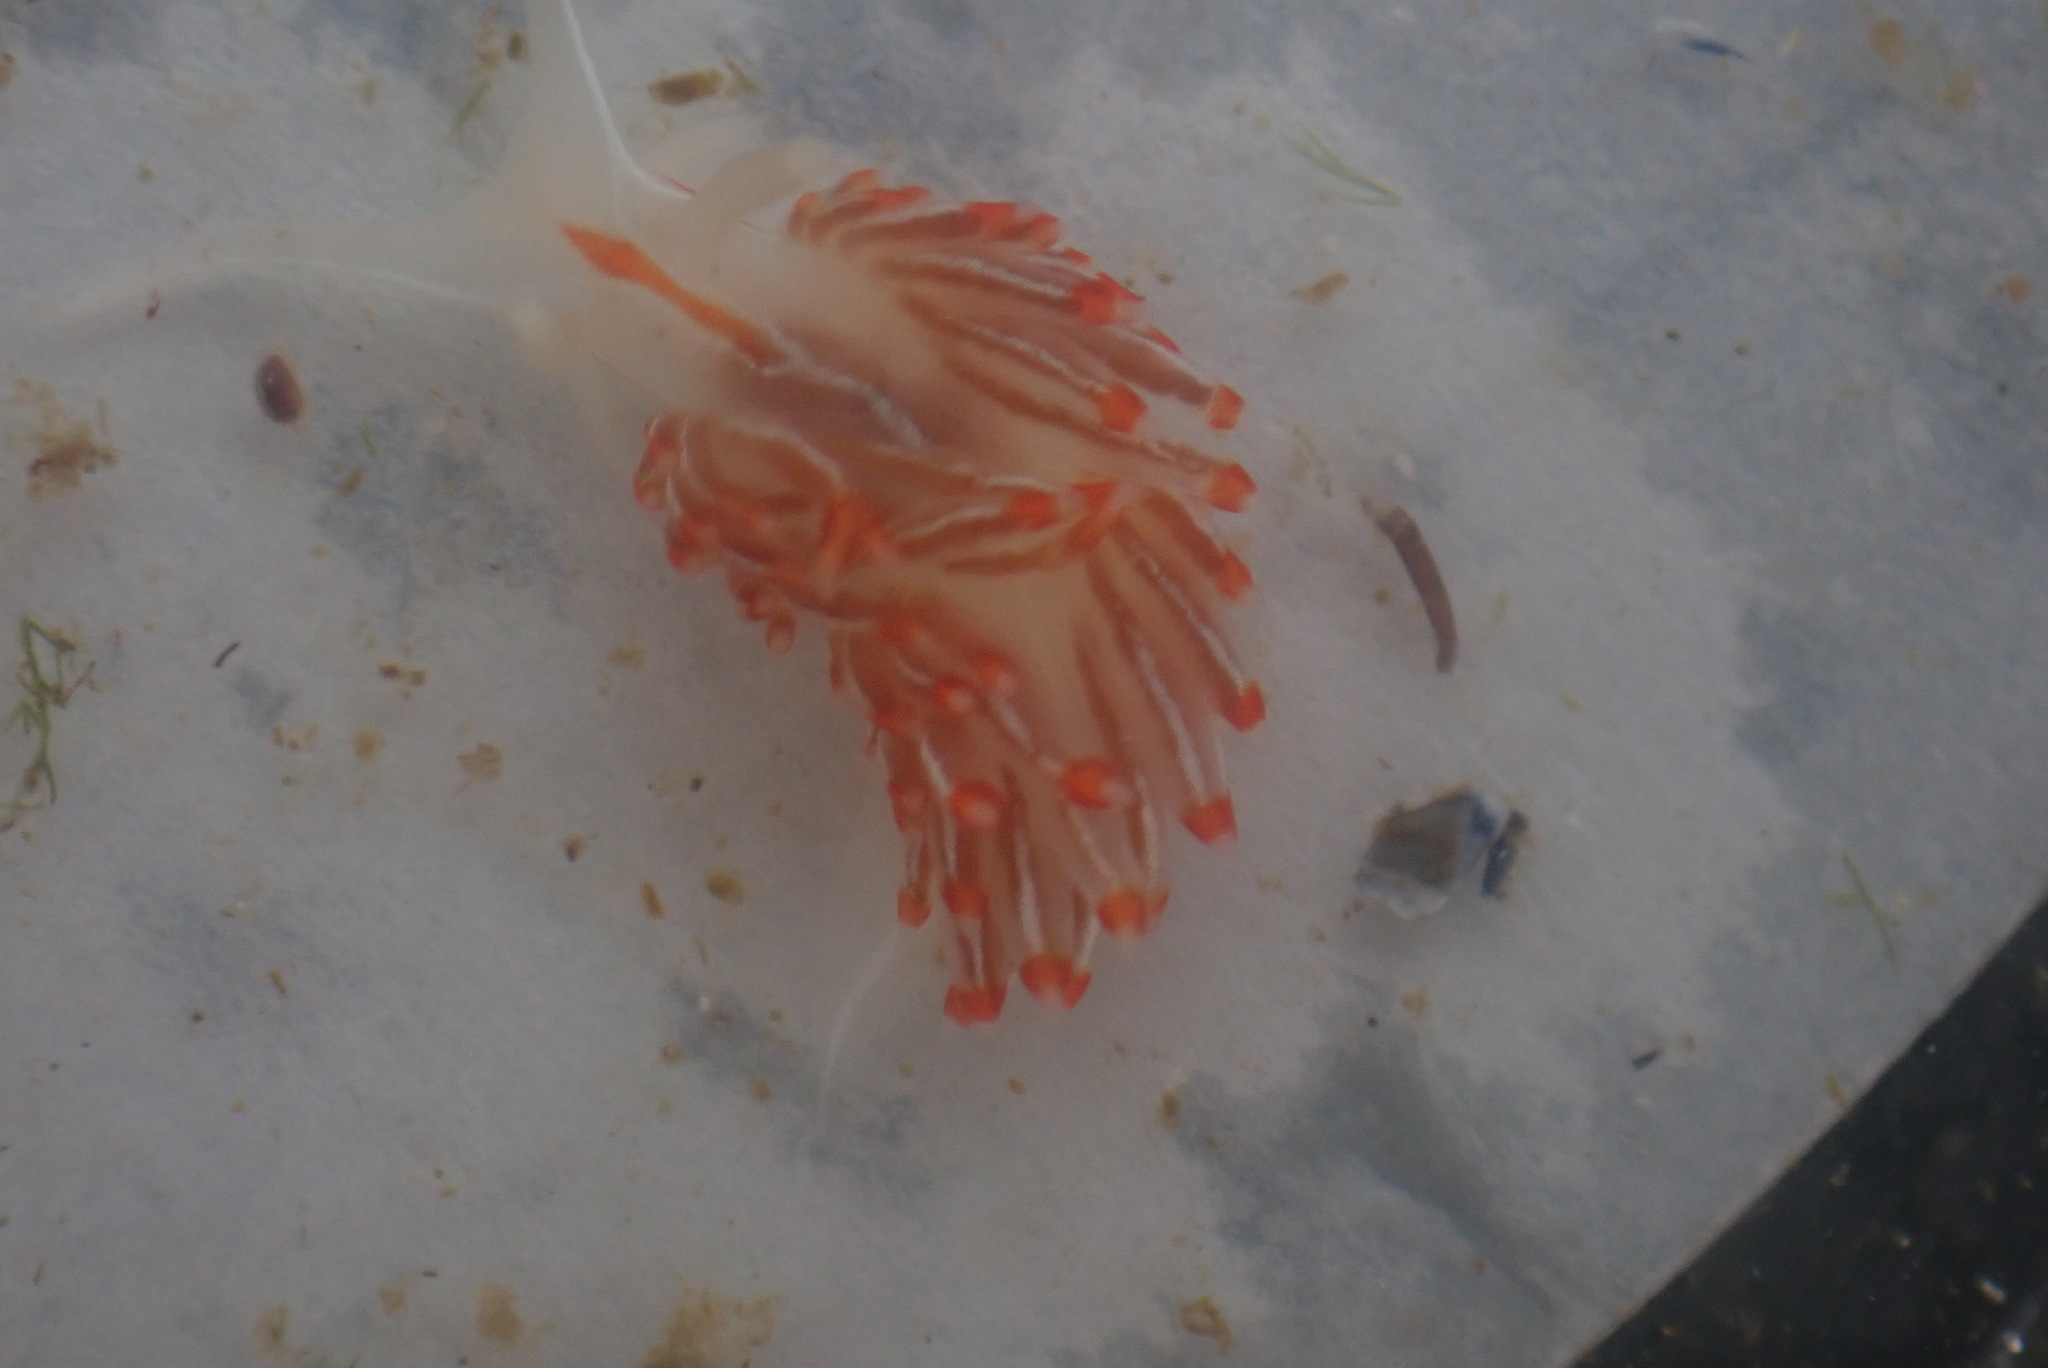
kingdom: Animalia
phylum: Mollusca
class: Gastropoda
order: Nudibranchia
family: Myrrhinidae
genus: Hermissenda
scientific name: Hermissenda crassicornis
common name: Hermissenda
